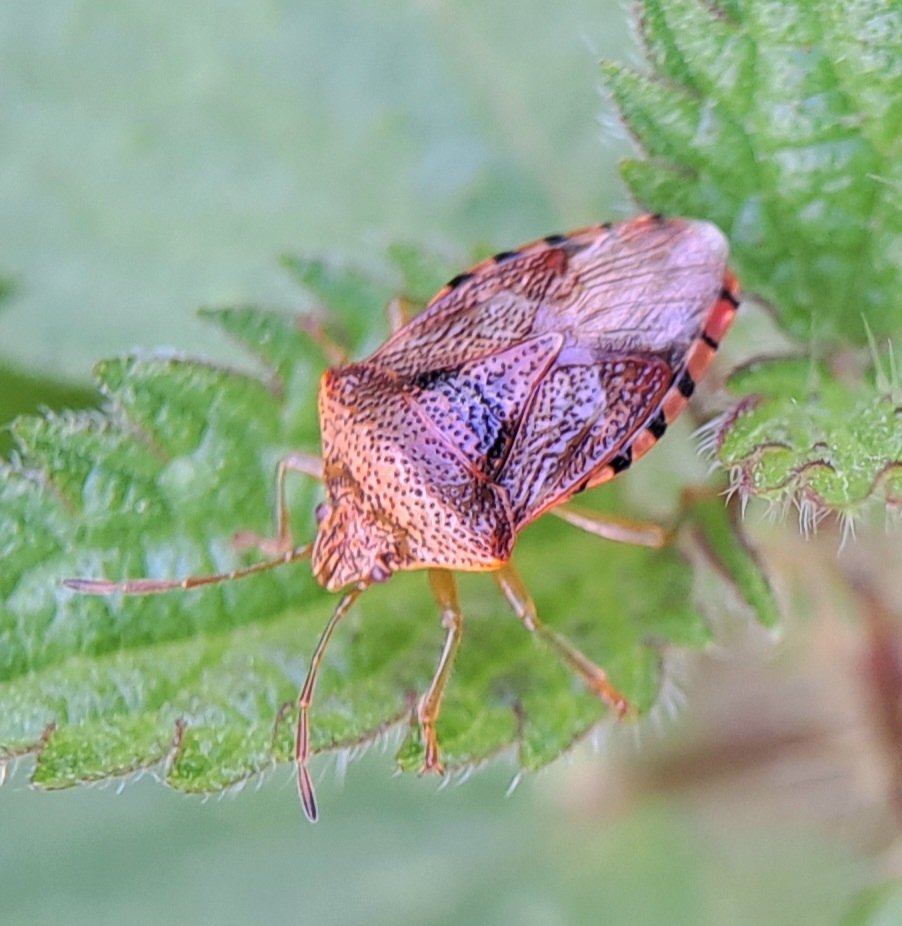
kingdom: Animalia
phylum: Arthropoda
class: Insecta
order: Hemiptera
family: Acanthosomatidae
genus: Elasmucha
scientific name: Elasmucha grisea
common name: Parent bug
